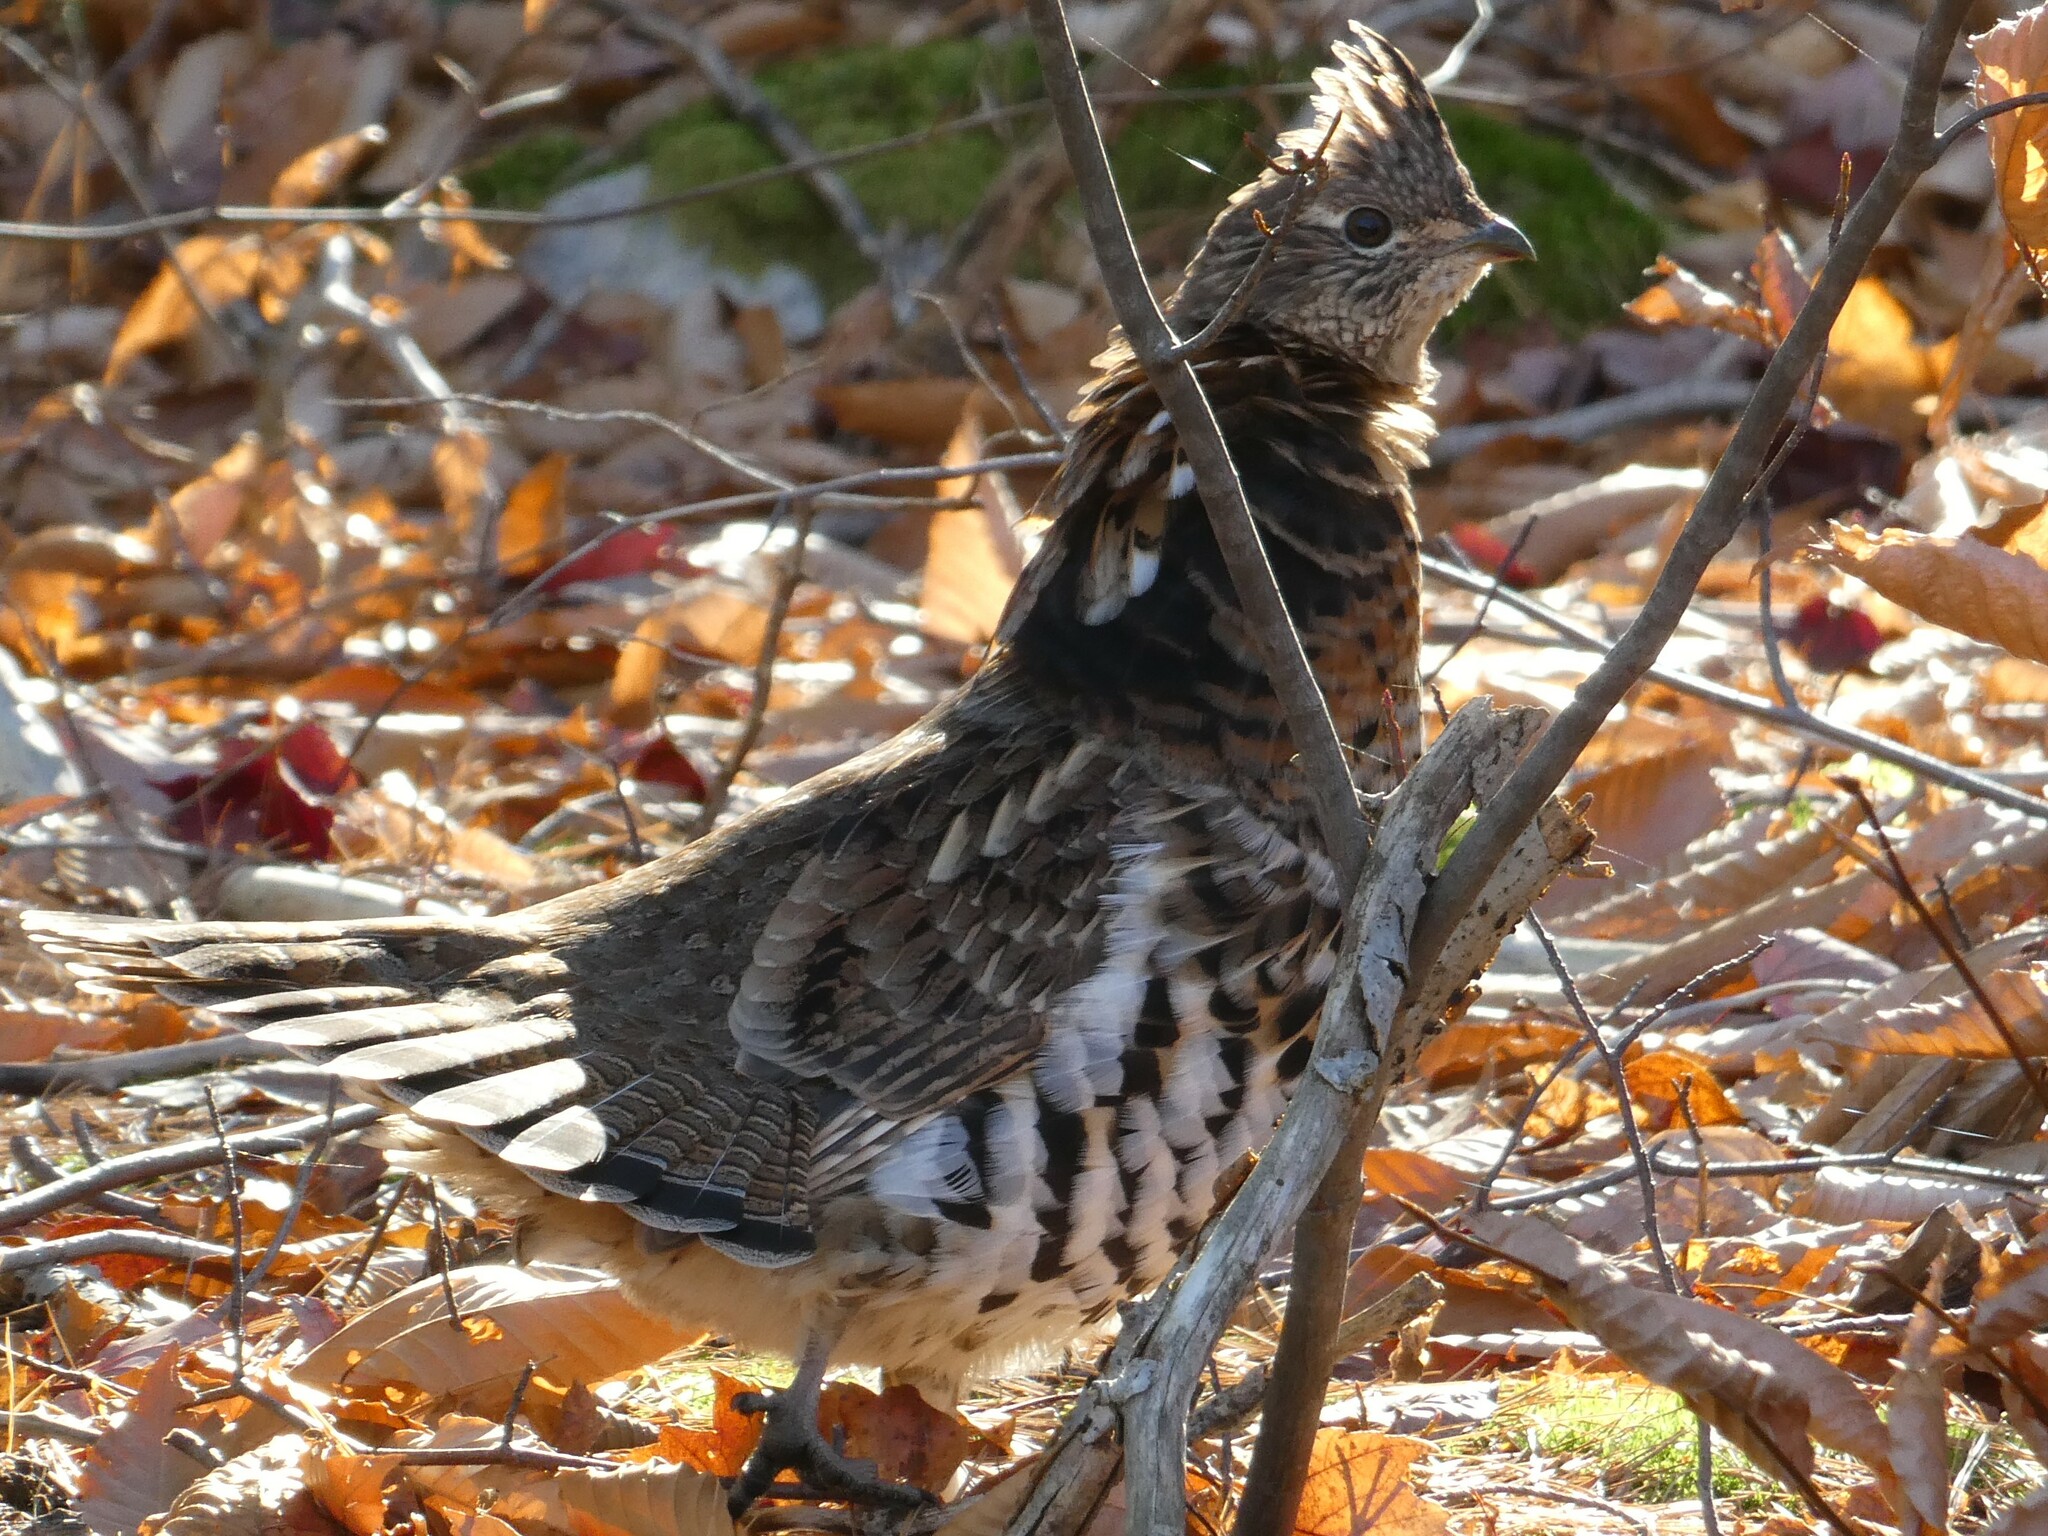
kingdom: Animalia
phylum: Chordata
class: Aves
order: Galliformes
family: Phasianidae
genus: Bonasa
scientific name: Bonasa umbellus
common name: Ruffed grouse
